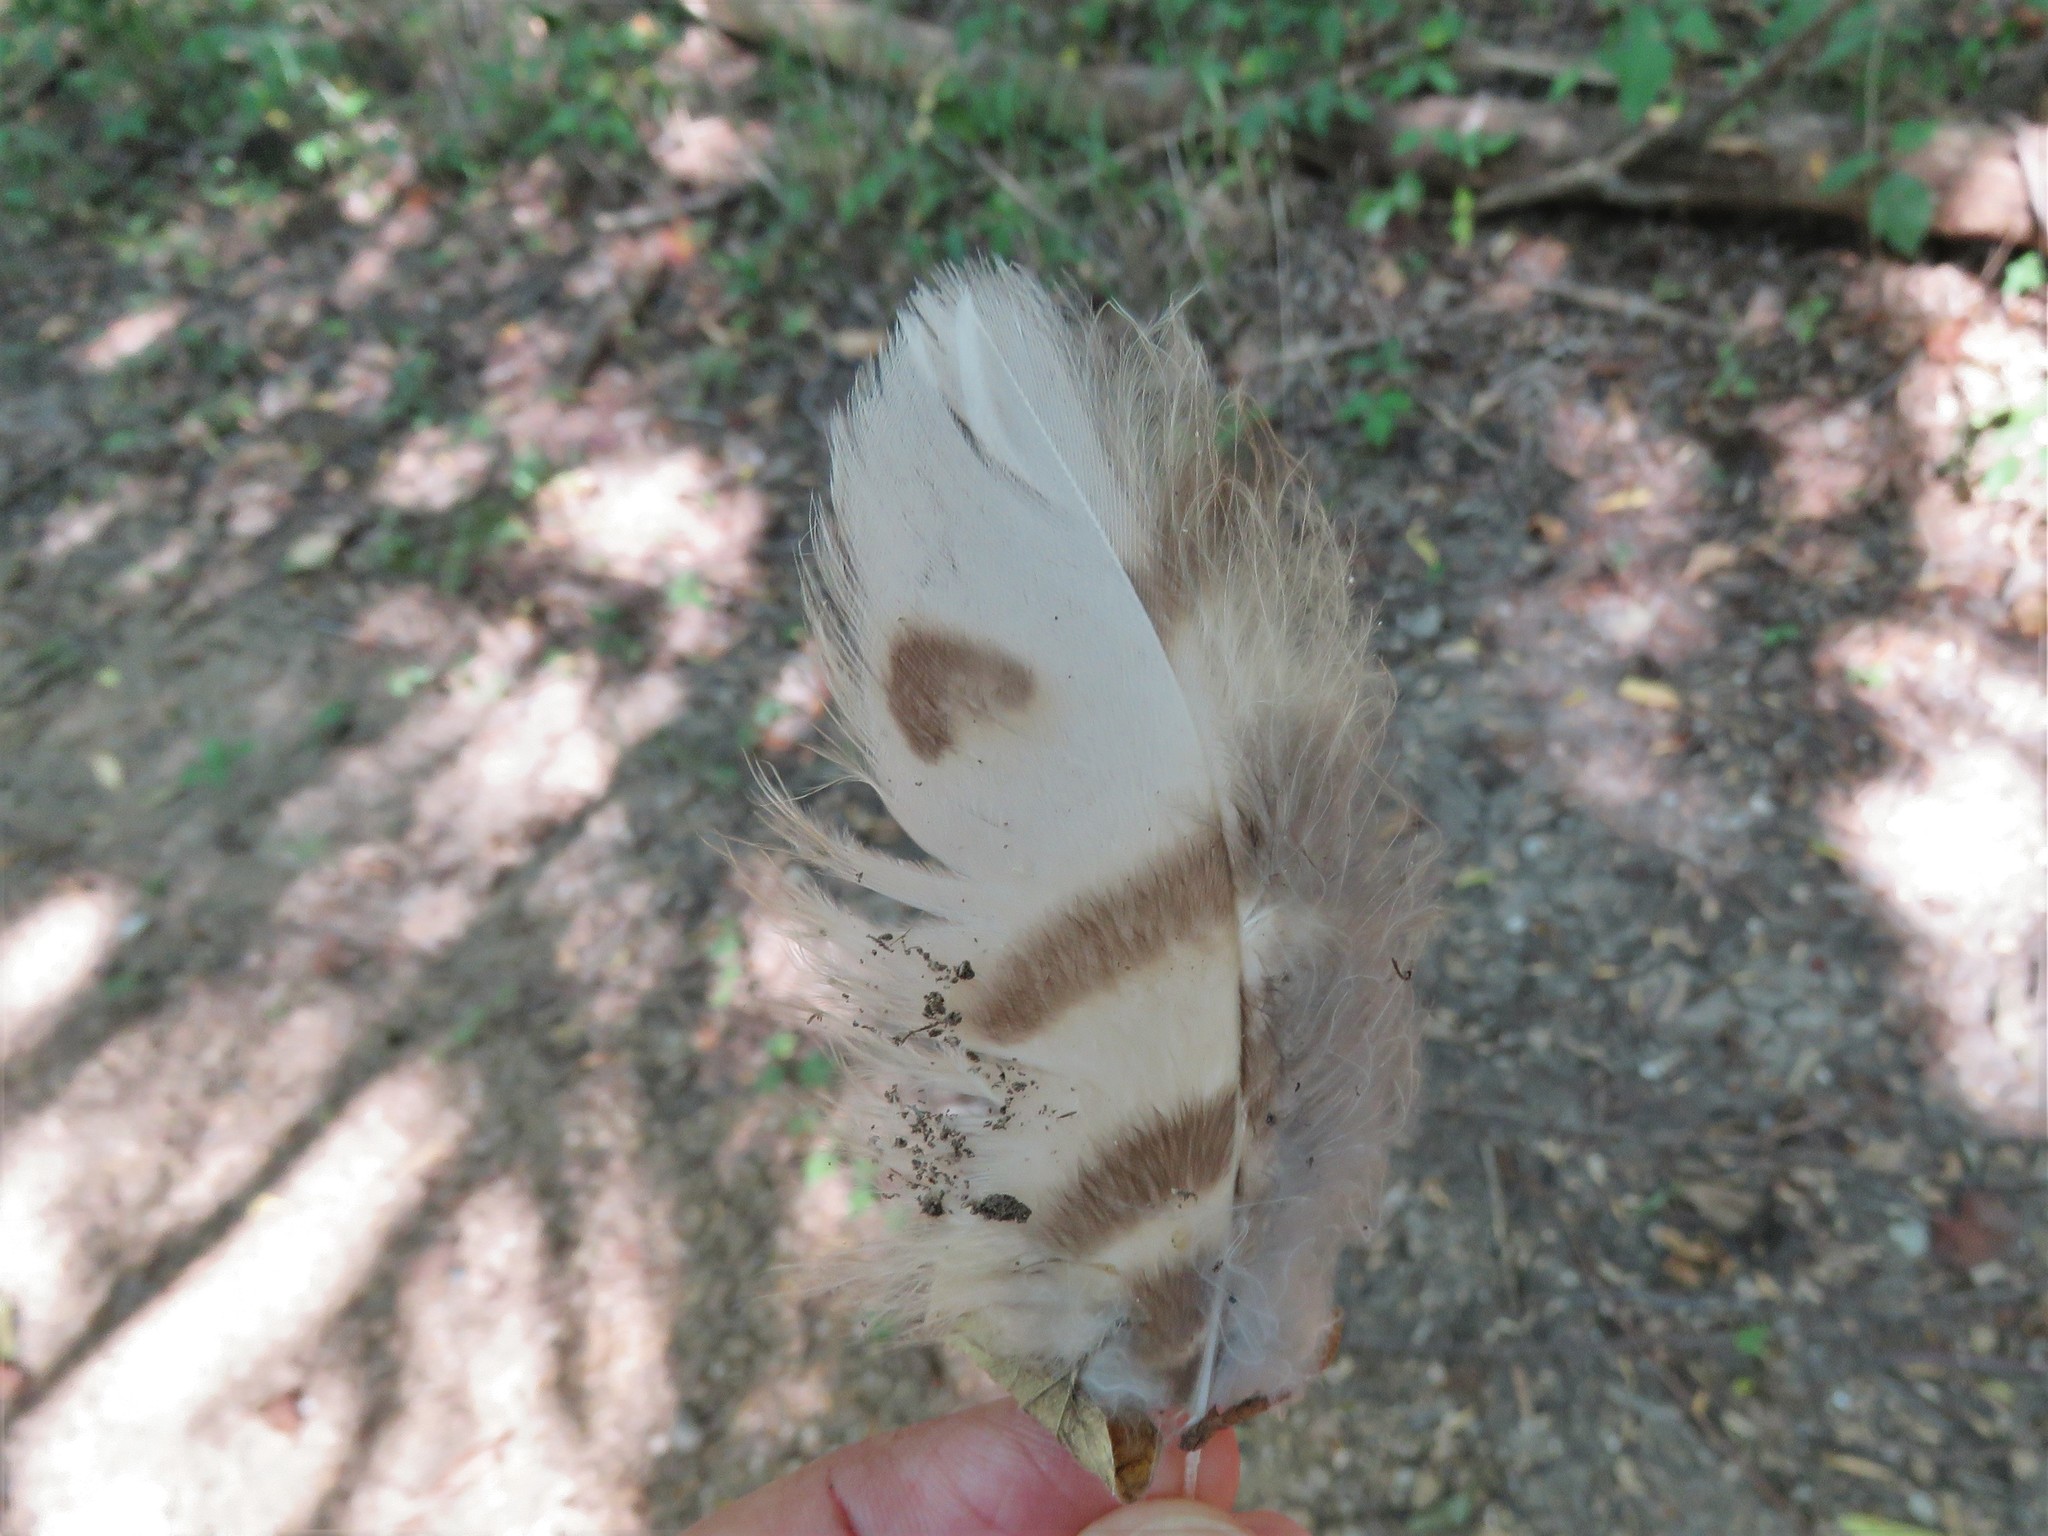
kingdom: Animalia
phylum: Chordata
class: Aves
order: Strigiformes
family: Strigidae
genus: Bubo
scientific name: Bubo virginianus
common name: Great horned owl
